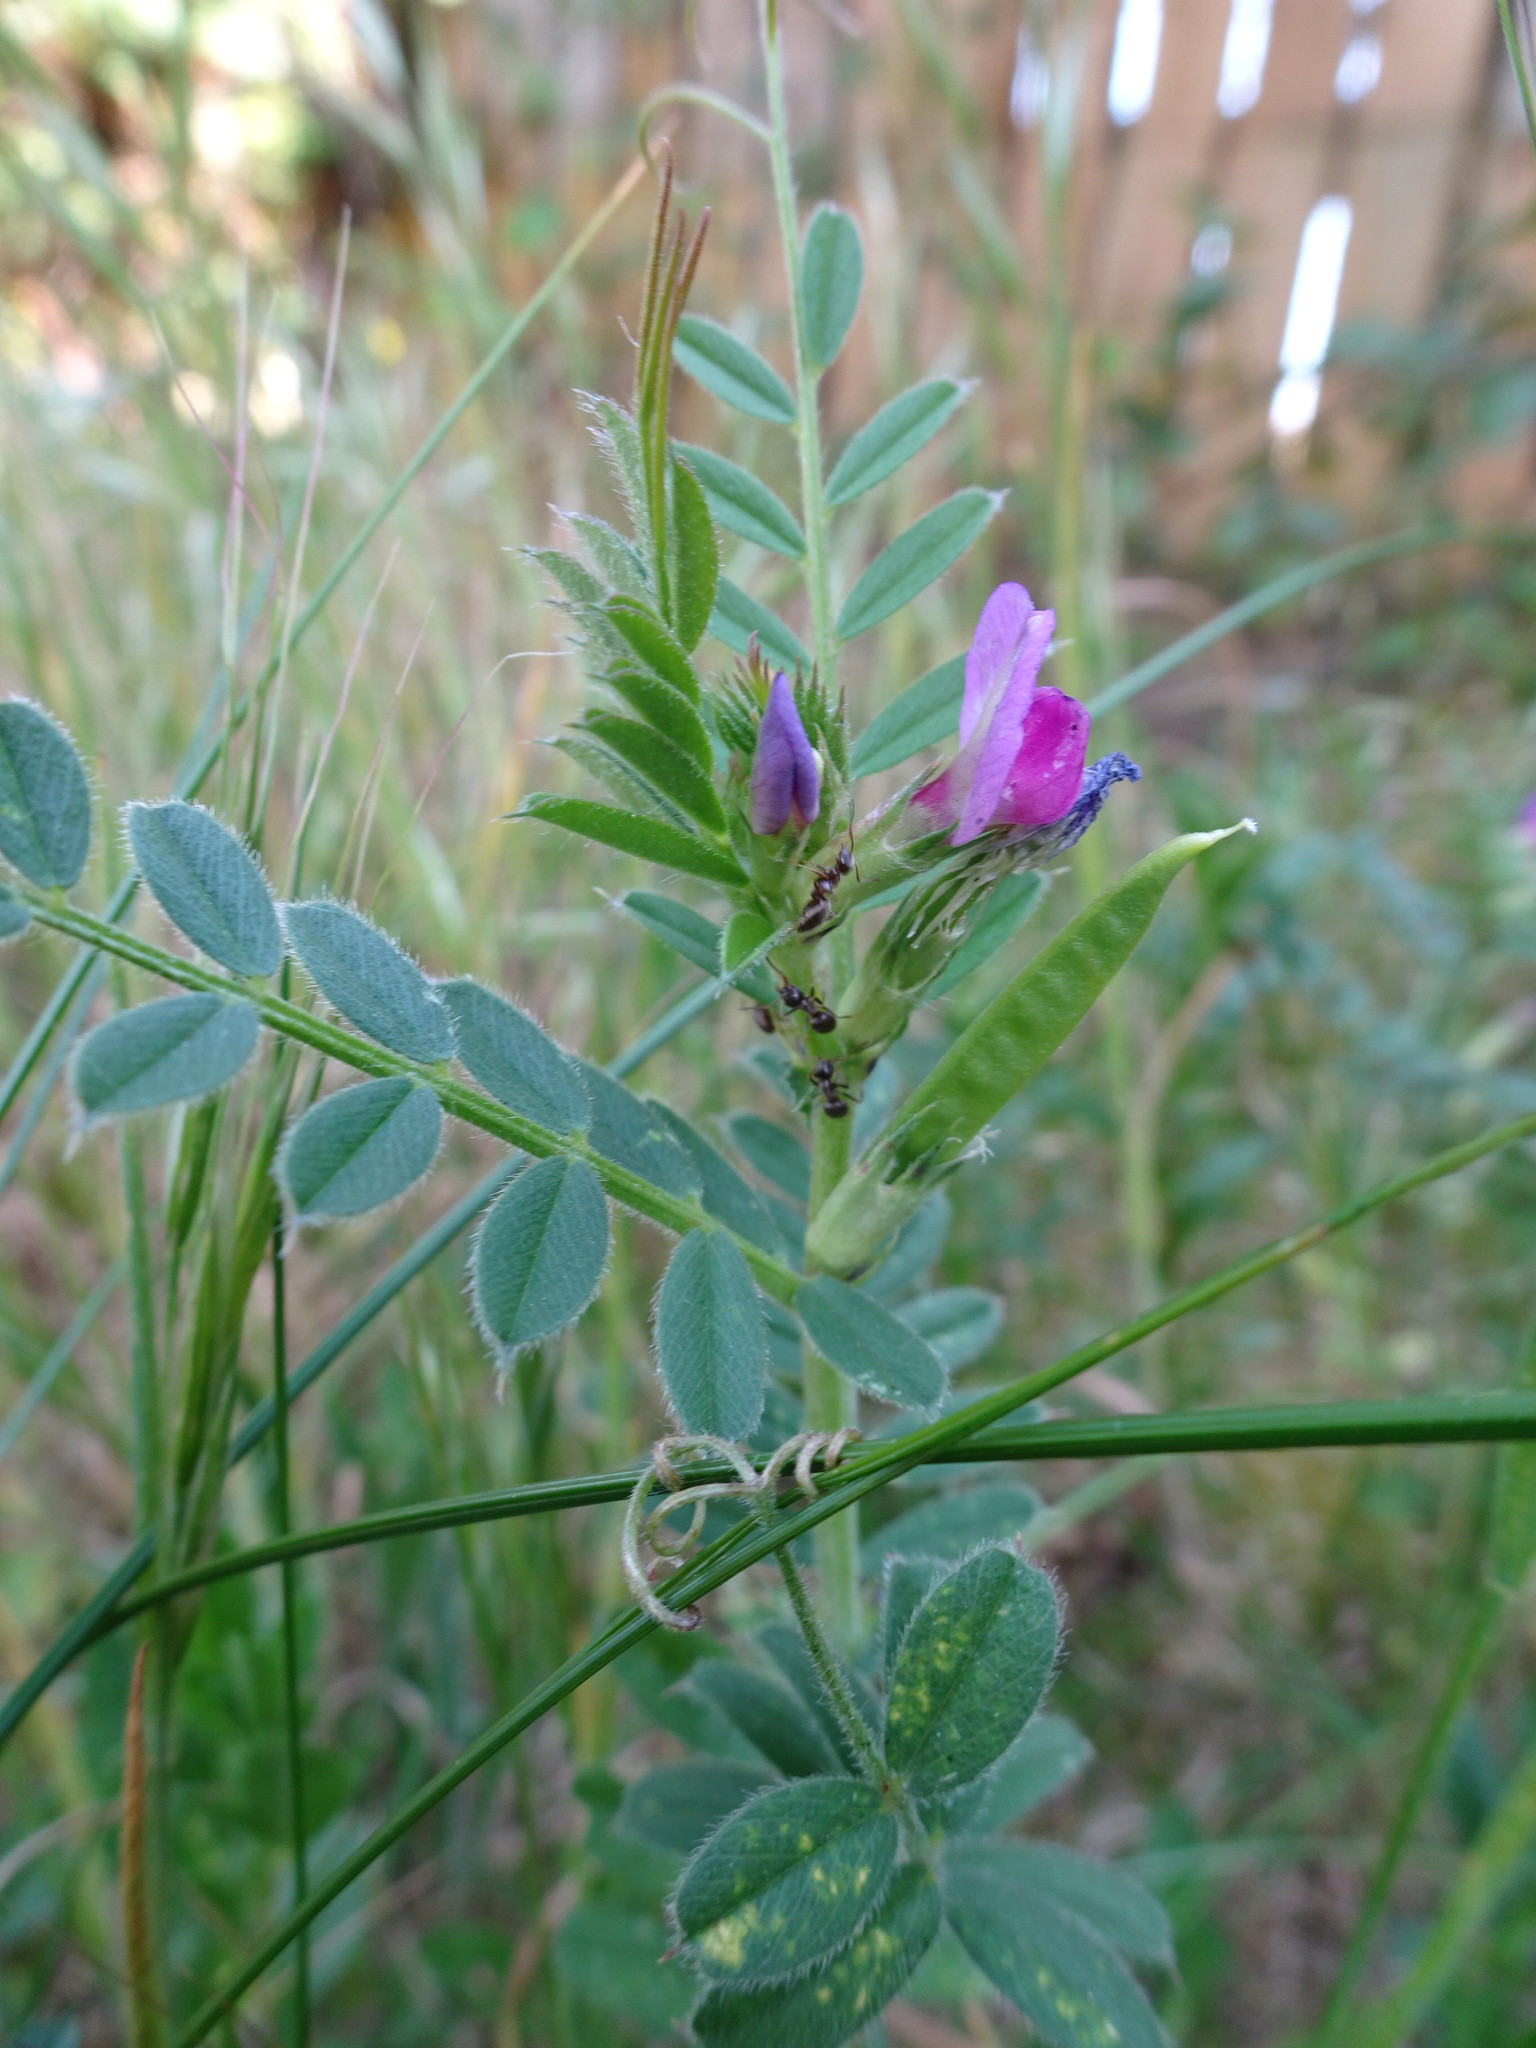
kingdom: Plantae
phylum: Tracheophyta
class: Magnoliopsida
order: Fabales
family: Fabaceae
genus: Vicia
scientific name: Vicia sativa
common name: Garden vetch
